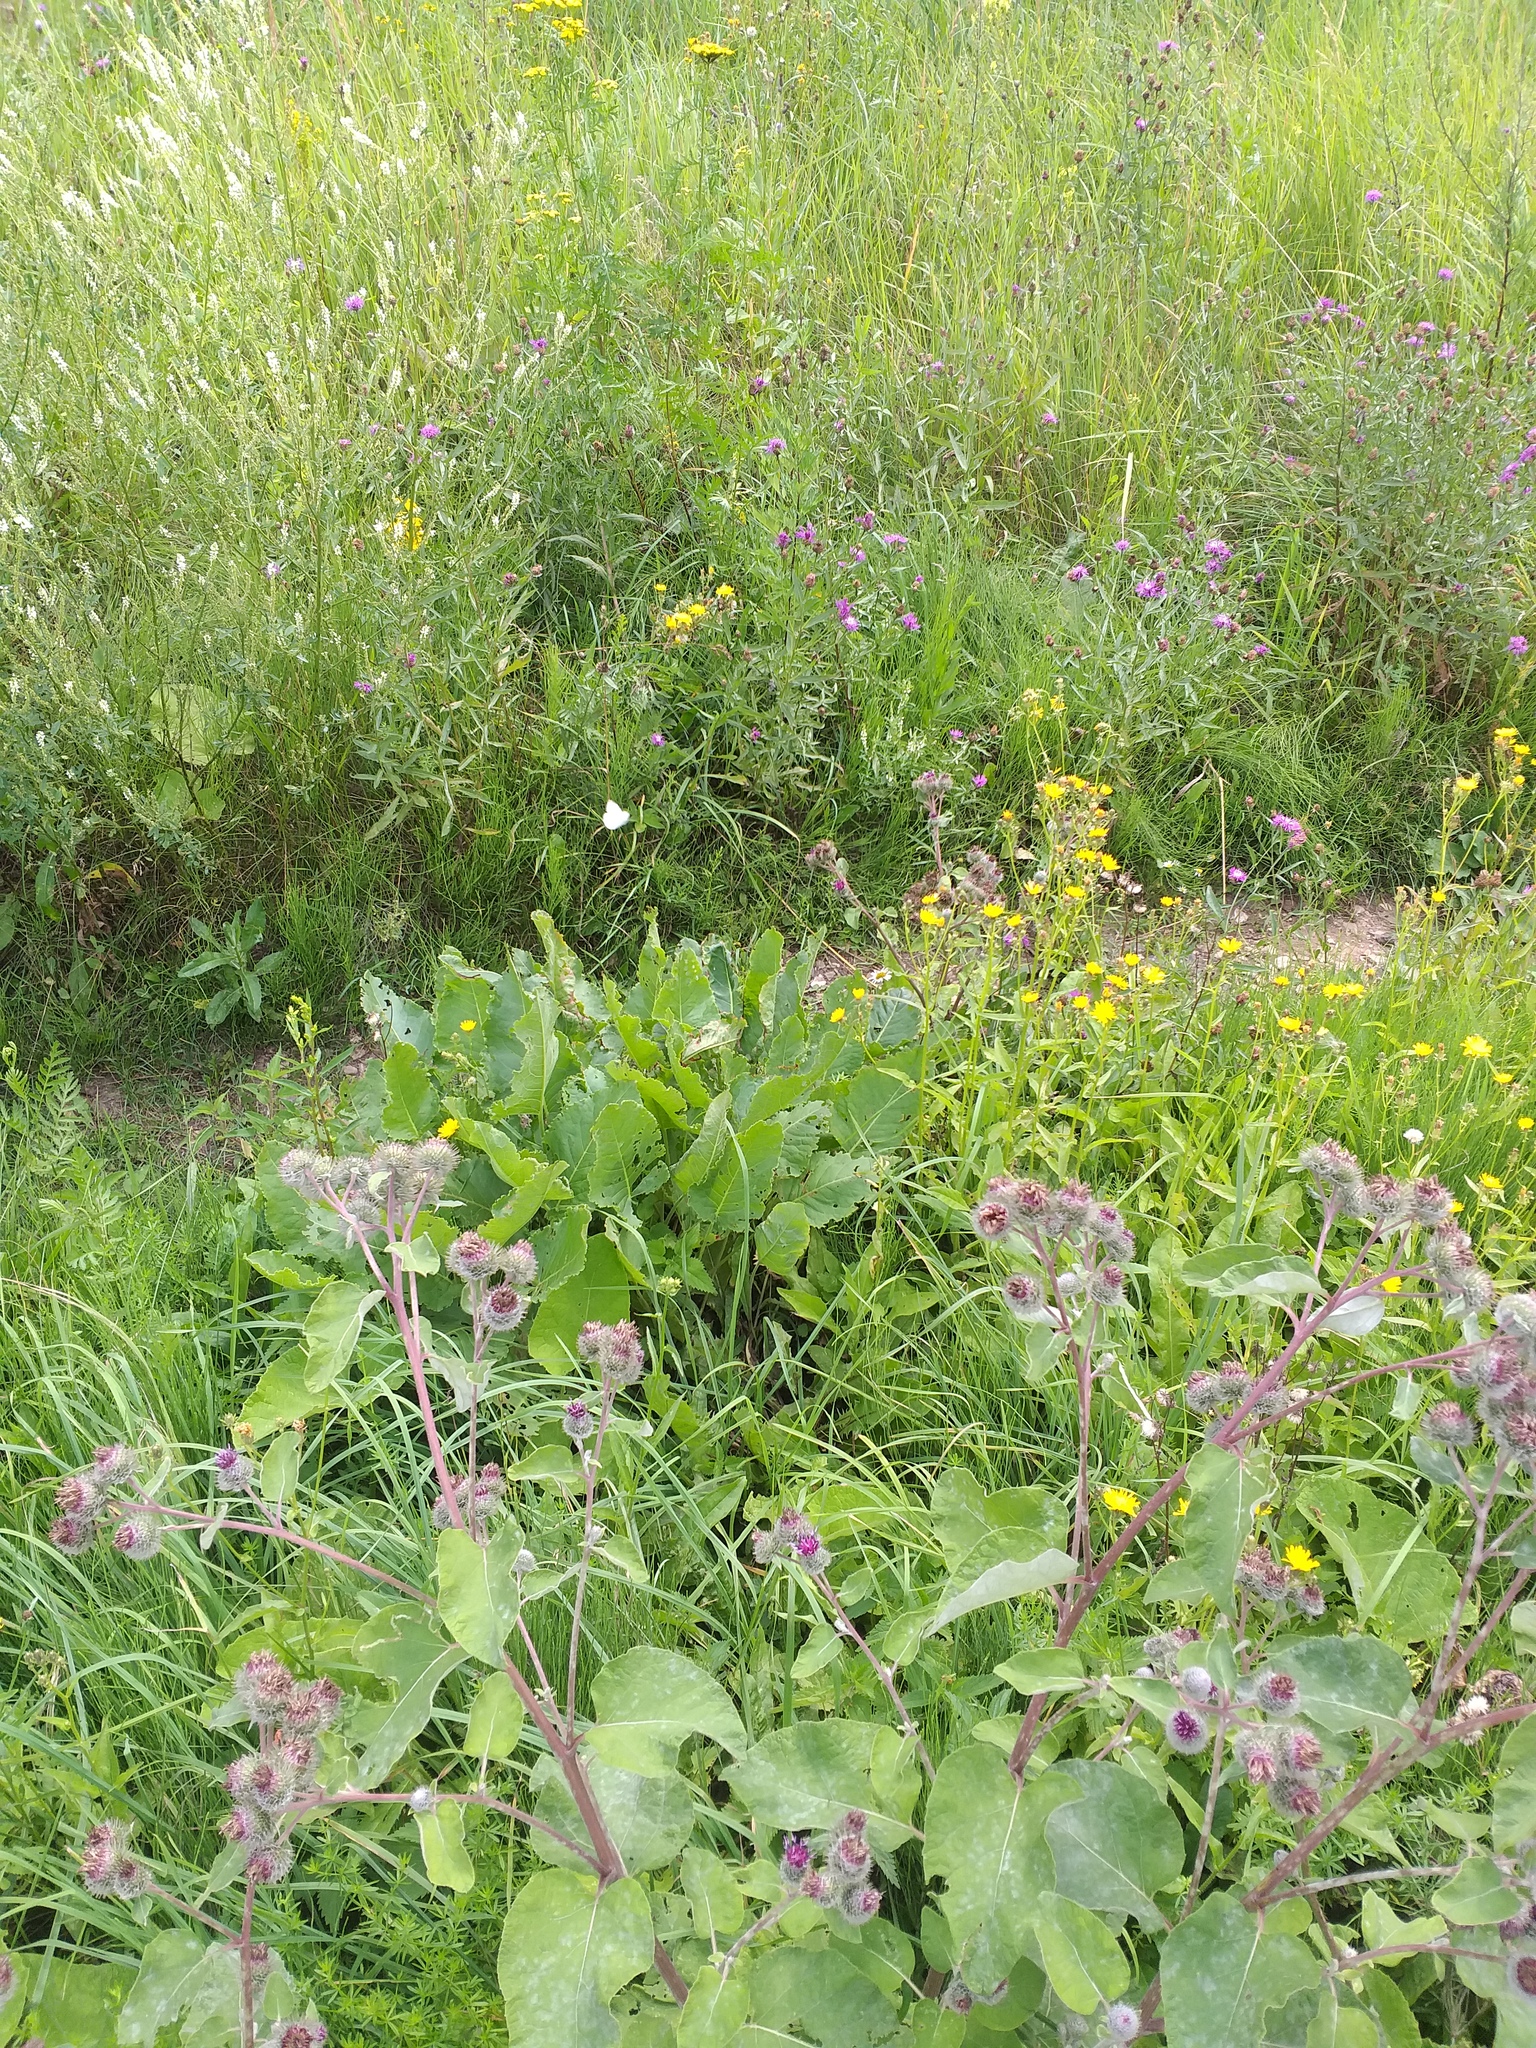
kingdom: Plantae
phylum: Tracheophyta
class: Magnoliopsida
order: Caryophyllales
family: Polygonaceae
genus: Rumex
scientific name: Rumex confertus
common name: Russian dock
